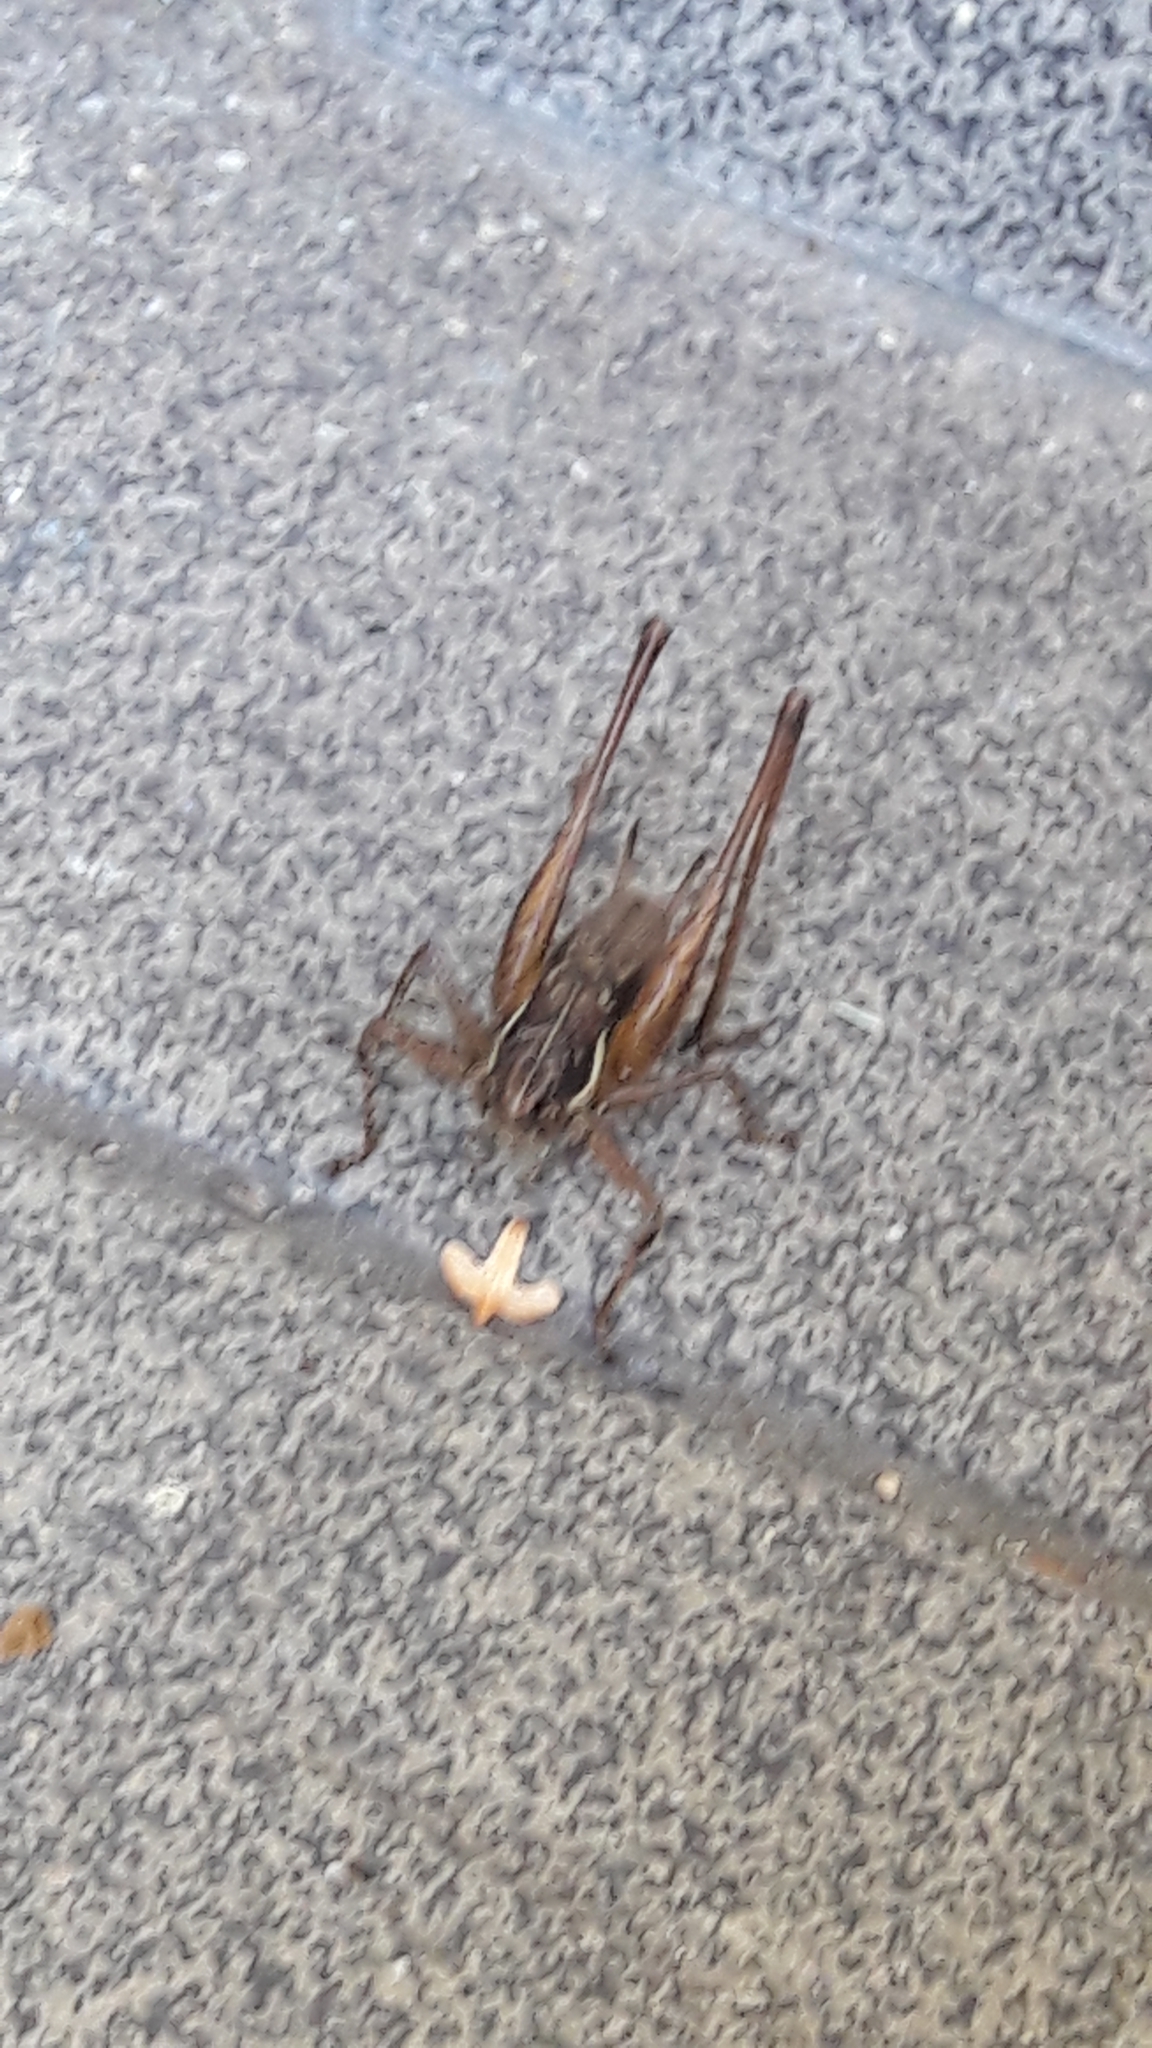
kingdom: Animalia
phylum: Arthropoda
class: Insecta
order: Orthoptera
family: Tettigoniidae
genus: Pachytrachis
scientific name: Pachytrachis gracilis
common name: Graceful bush-cricket
